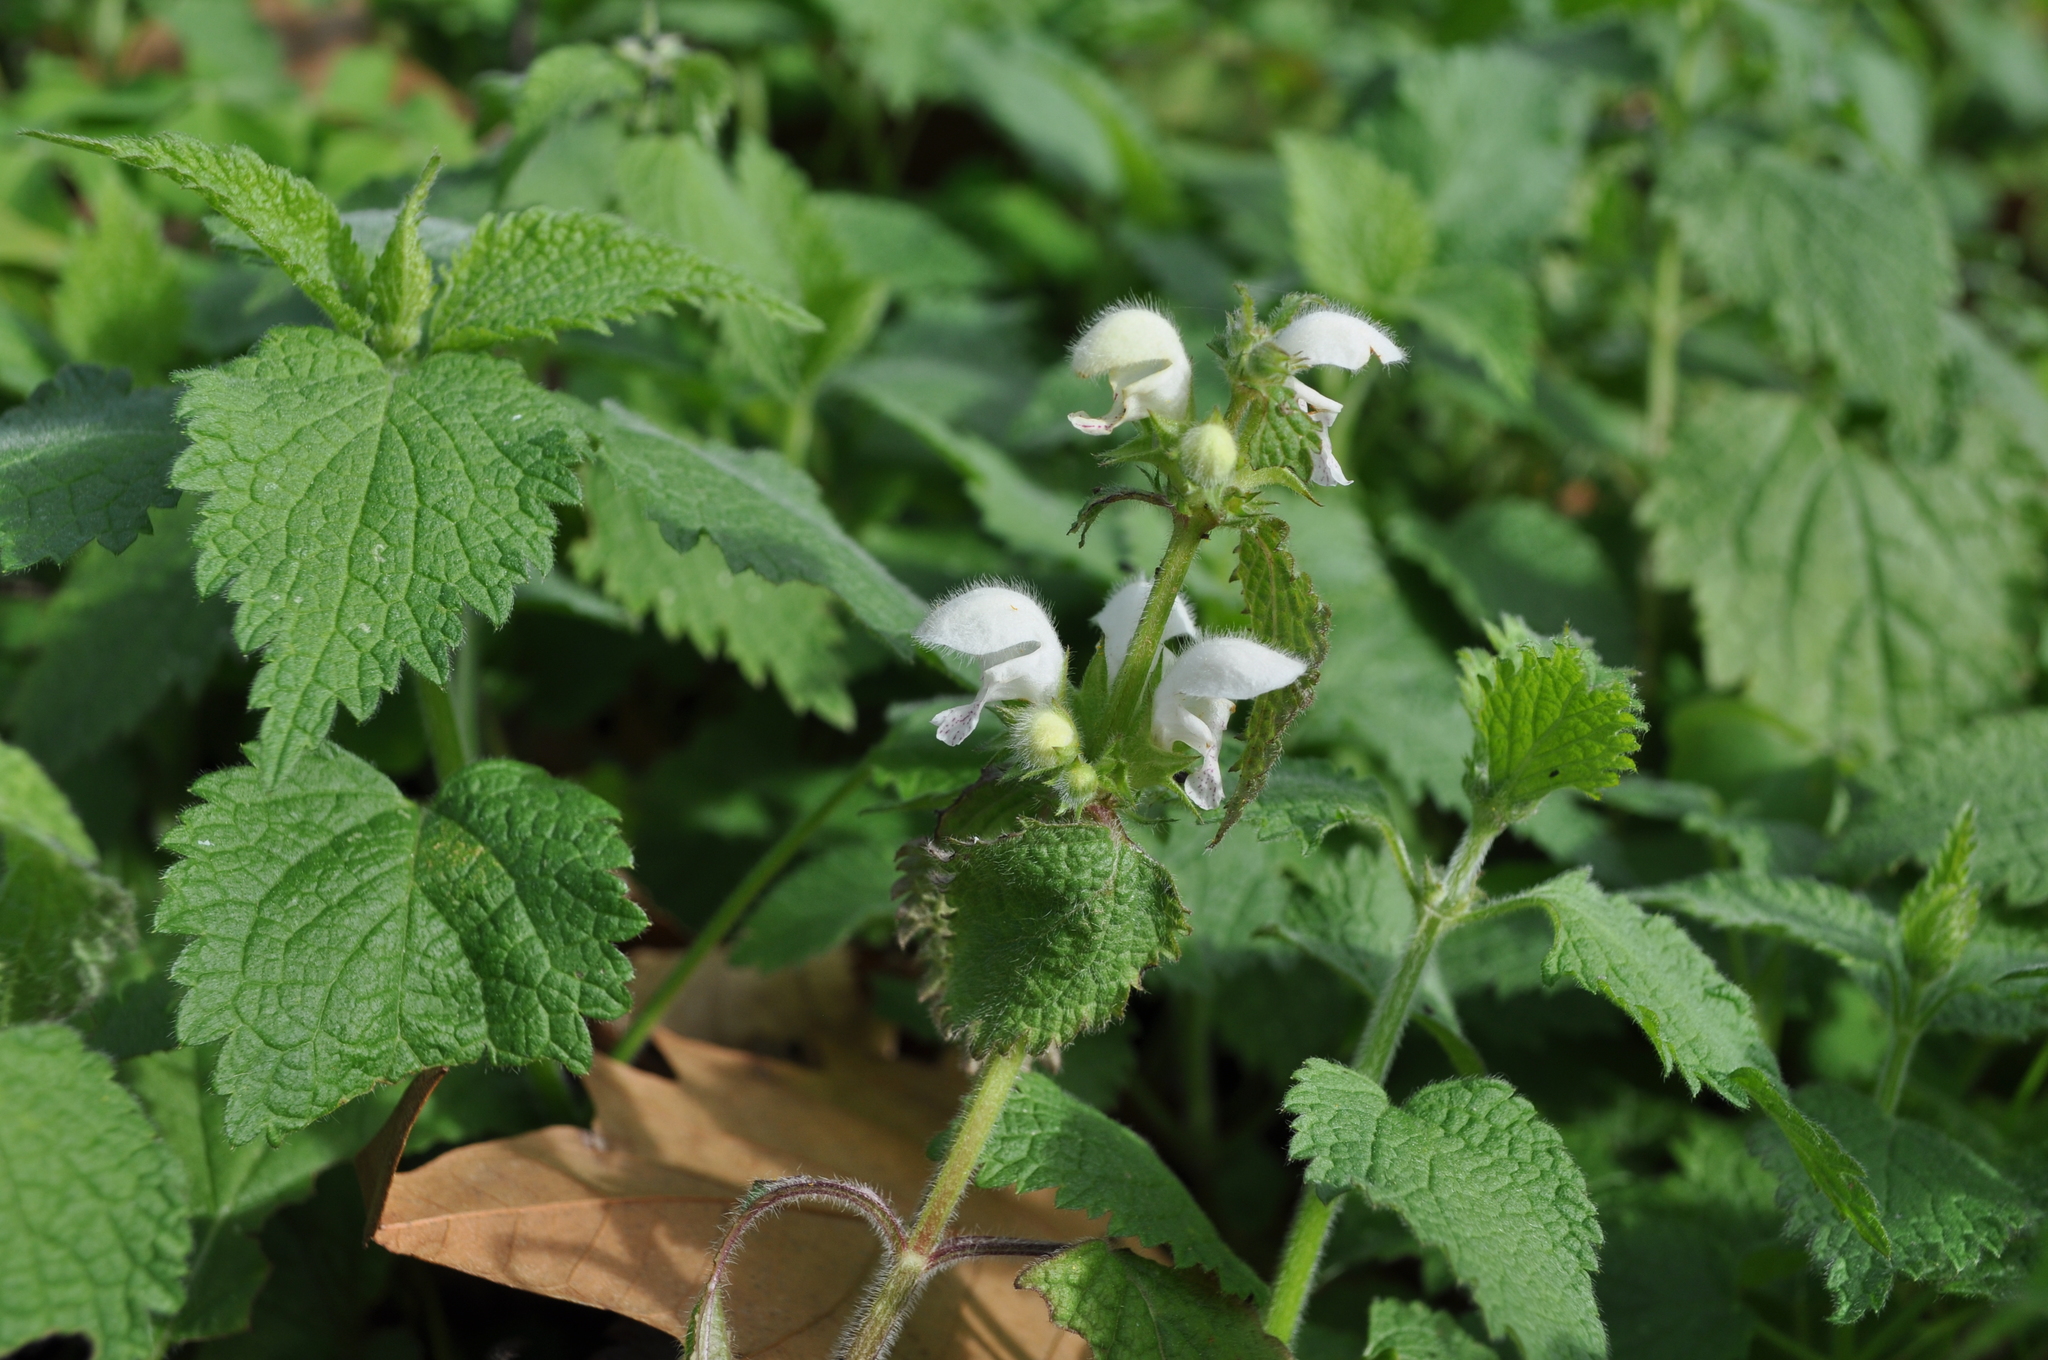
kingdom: Plantae
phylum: Tracheophyta
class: Magnoliopsida
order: Lamiales
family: Lamiaceae
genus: Lamium
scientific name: Lamium flexuosum
